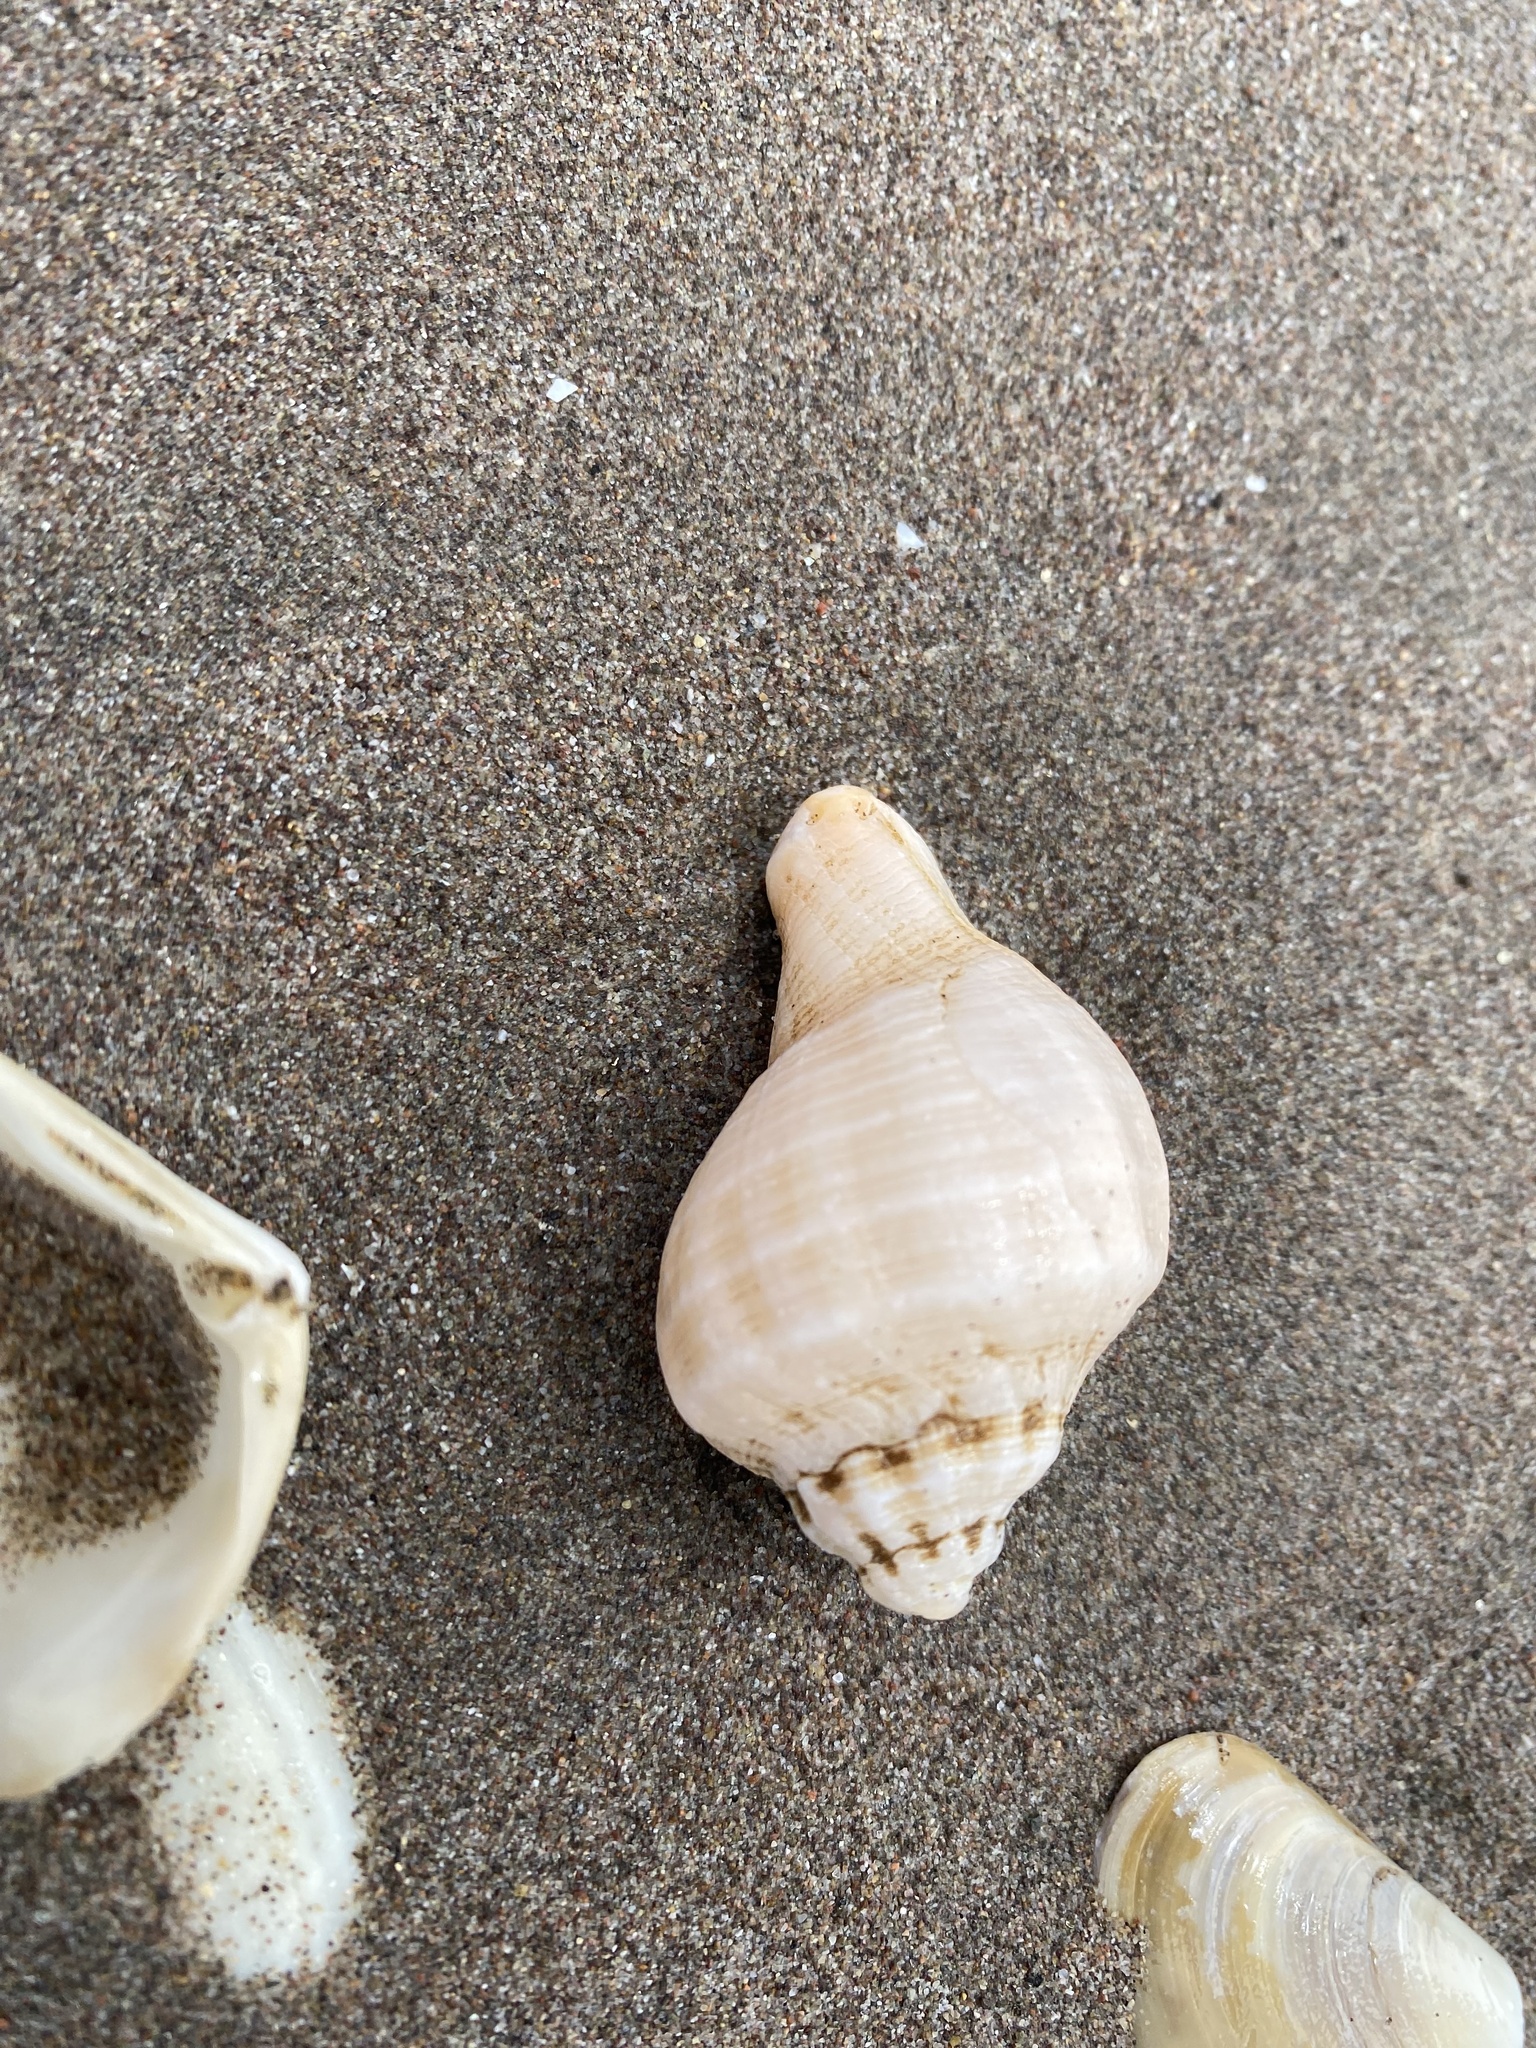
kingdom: Animalia
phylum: Mollusca
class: Gastropoda
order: Neogastropoda
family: Muricidae
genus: Xanthochorus
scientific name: Xanthochorus cassidiformis
